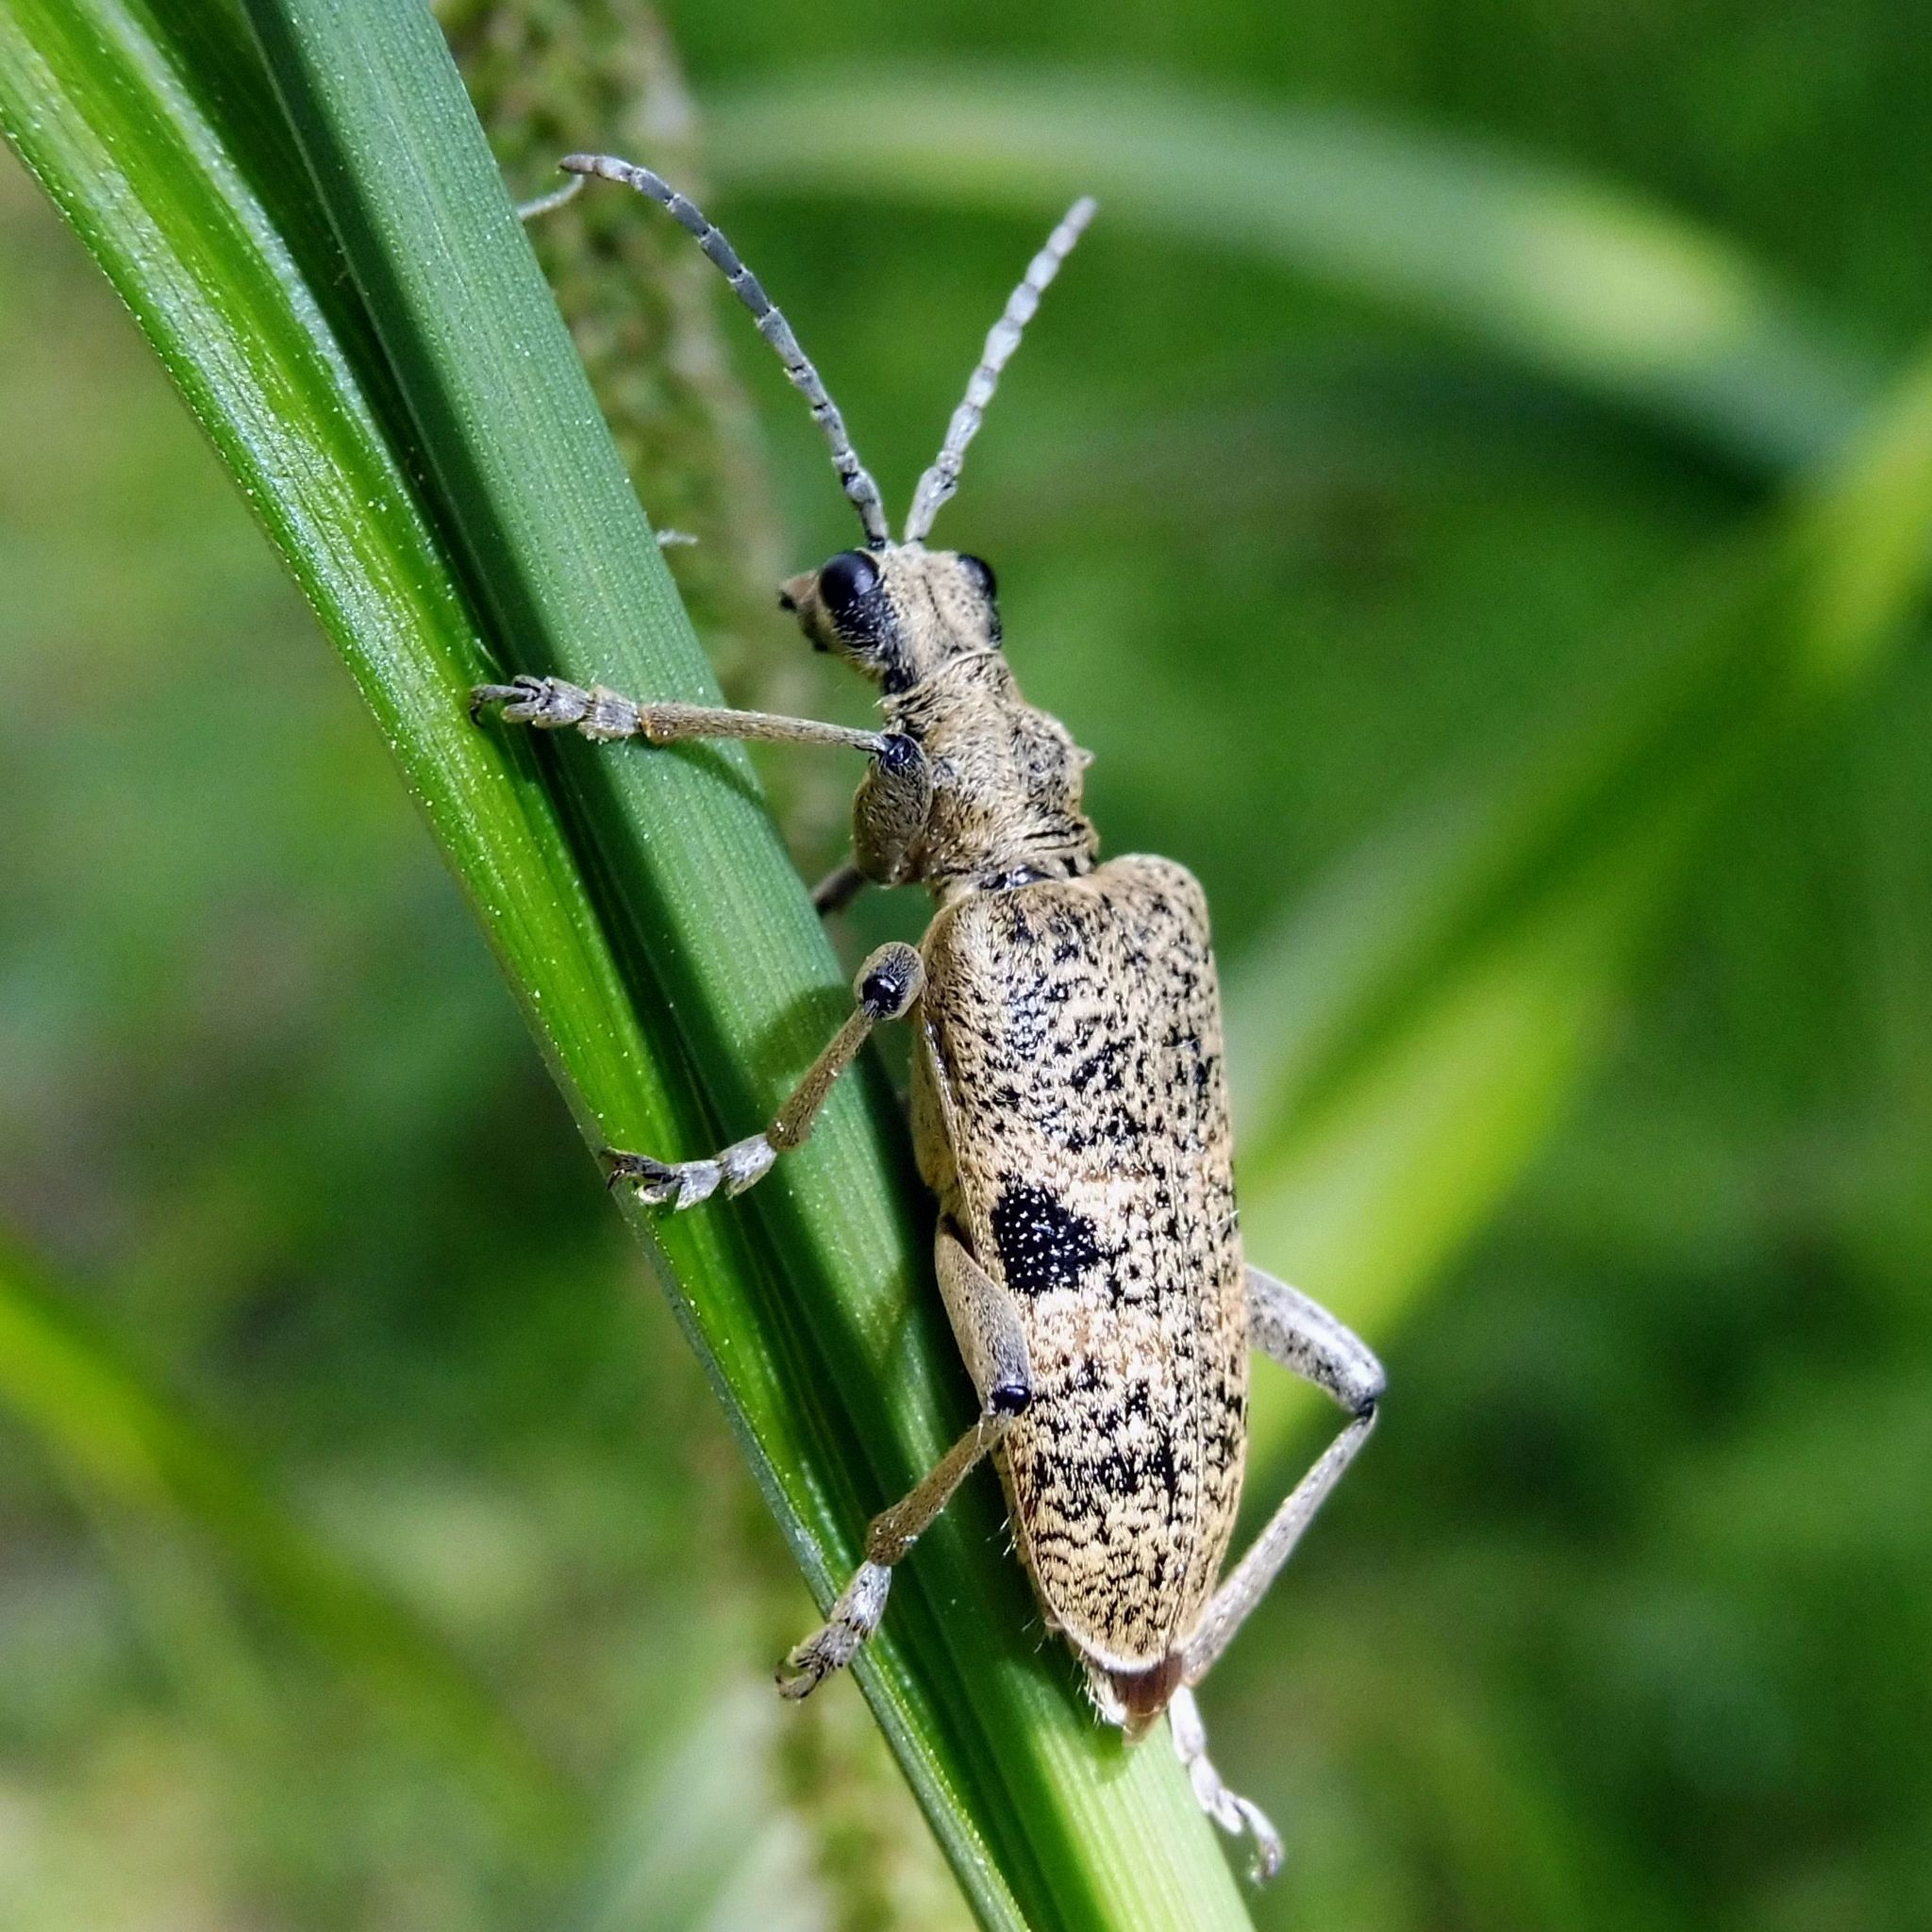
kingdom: Animalia
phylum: Arthropoda
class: Insecta
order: Coleoptera
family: Cerambycidae
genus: Rhagium
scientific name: Rhagium mordax
